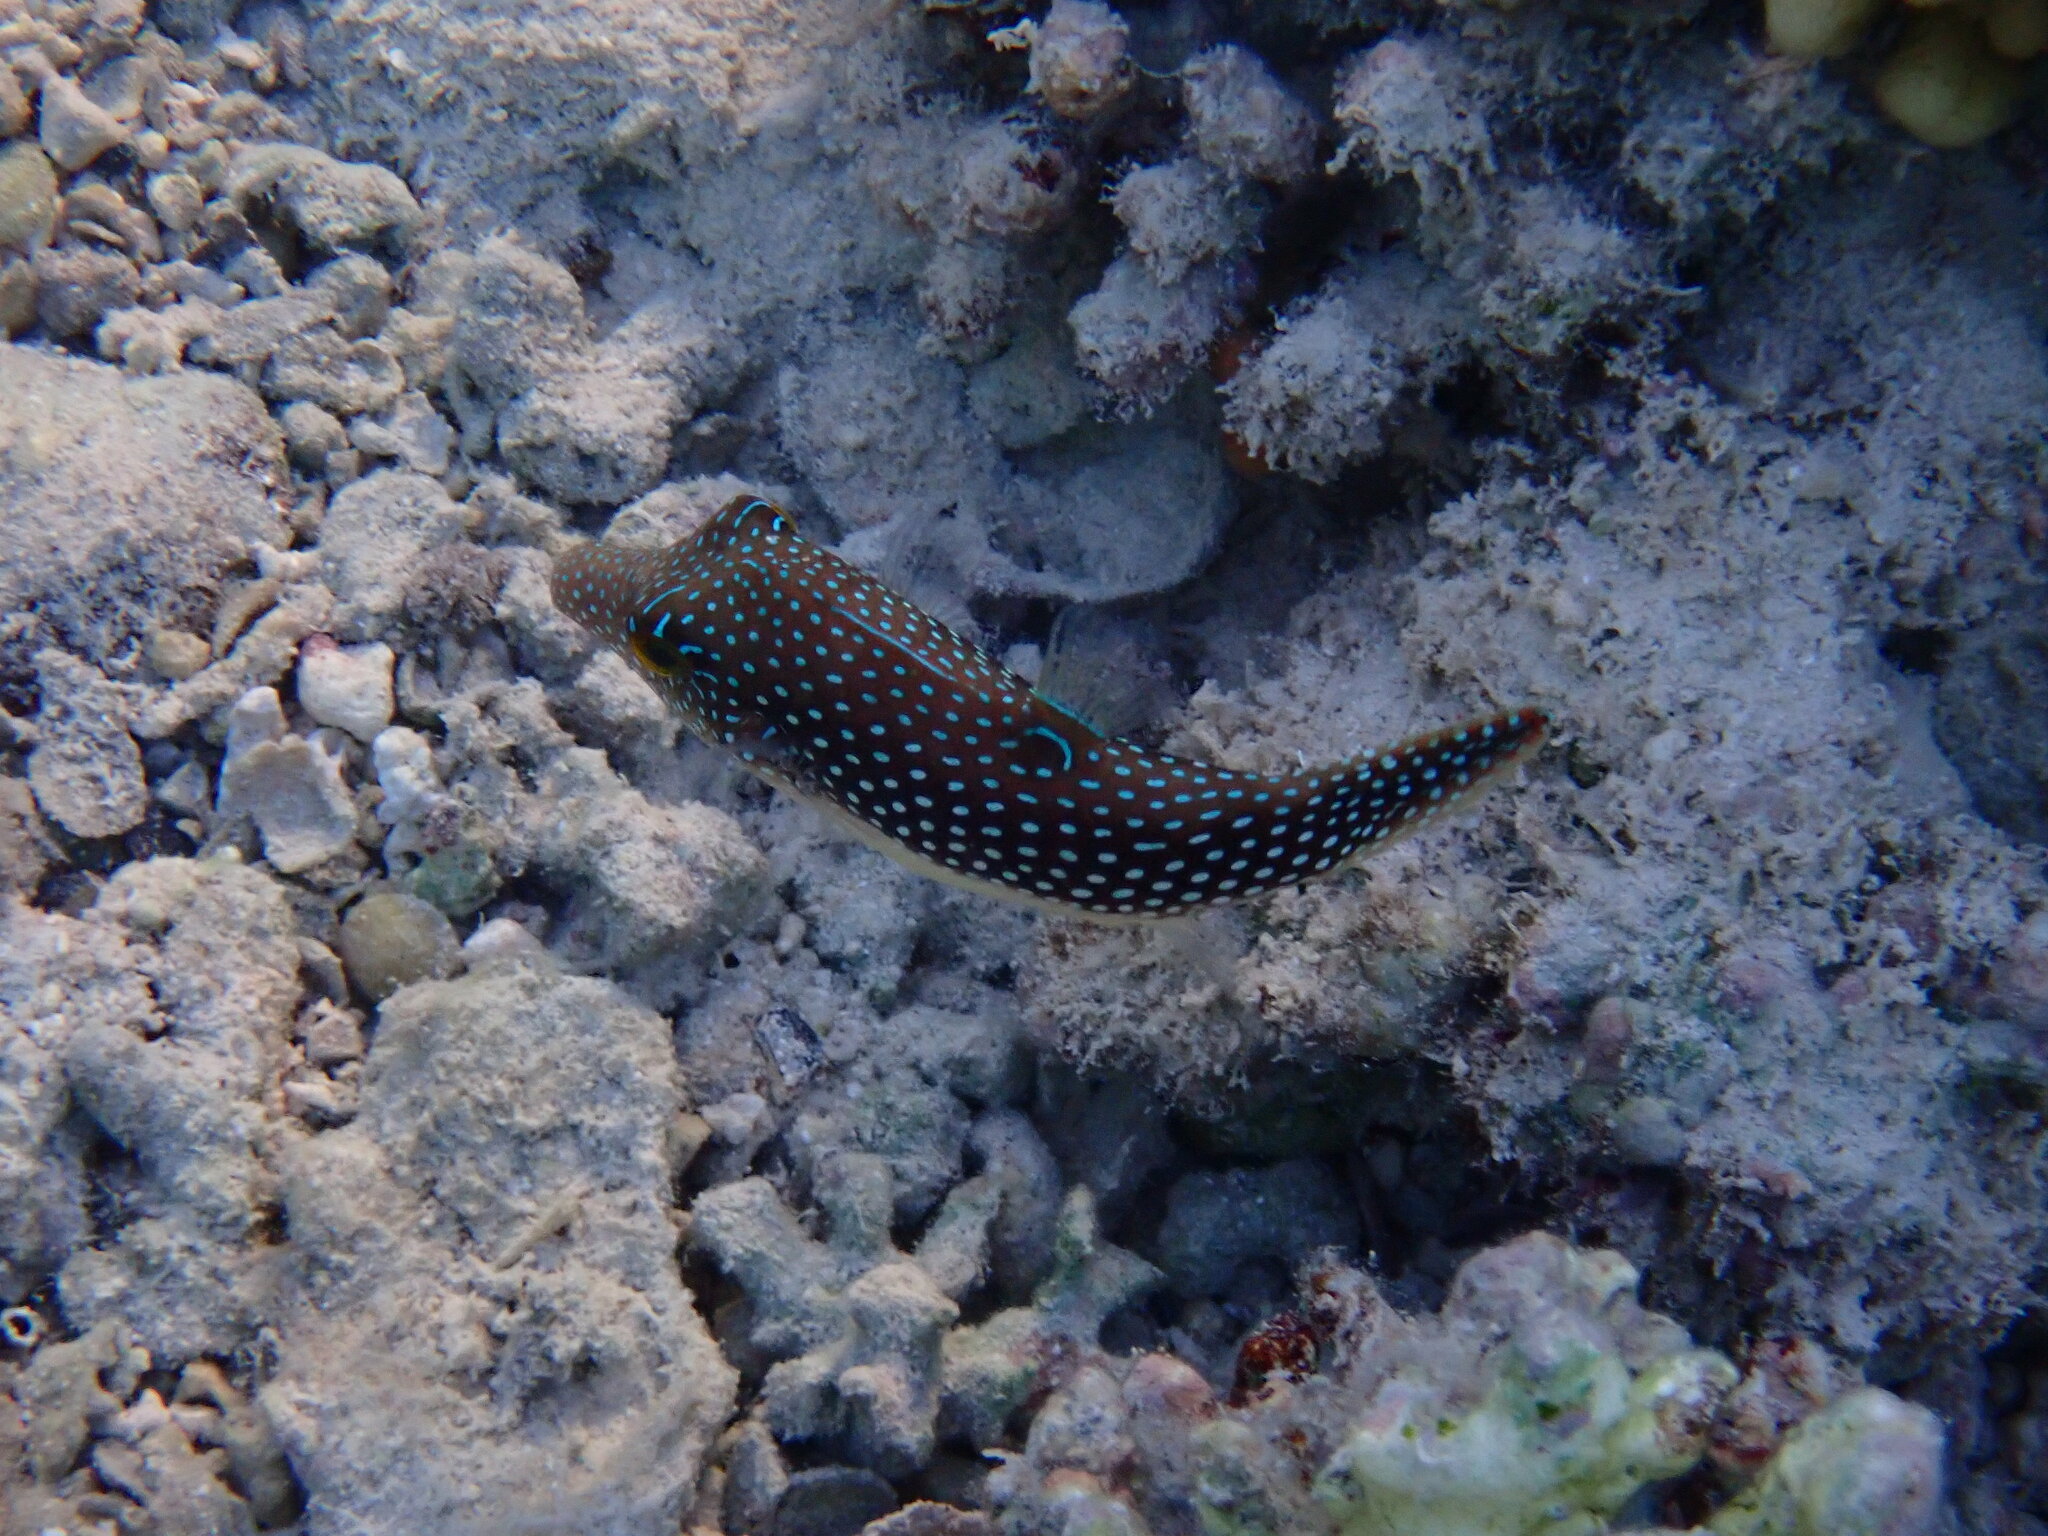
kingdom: Animalia
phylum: Chordata
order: Tetraodontiformes
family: Tetraodontidae
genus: Canthigaster
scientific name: Canthigaster margaritata
